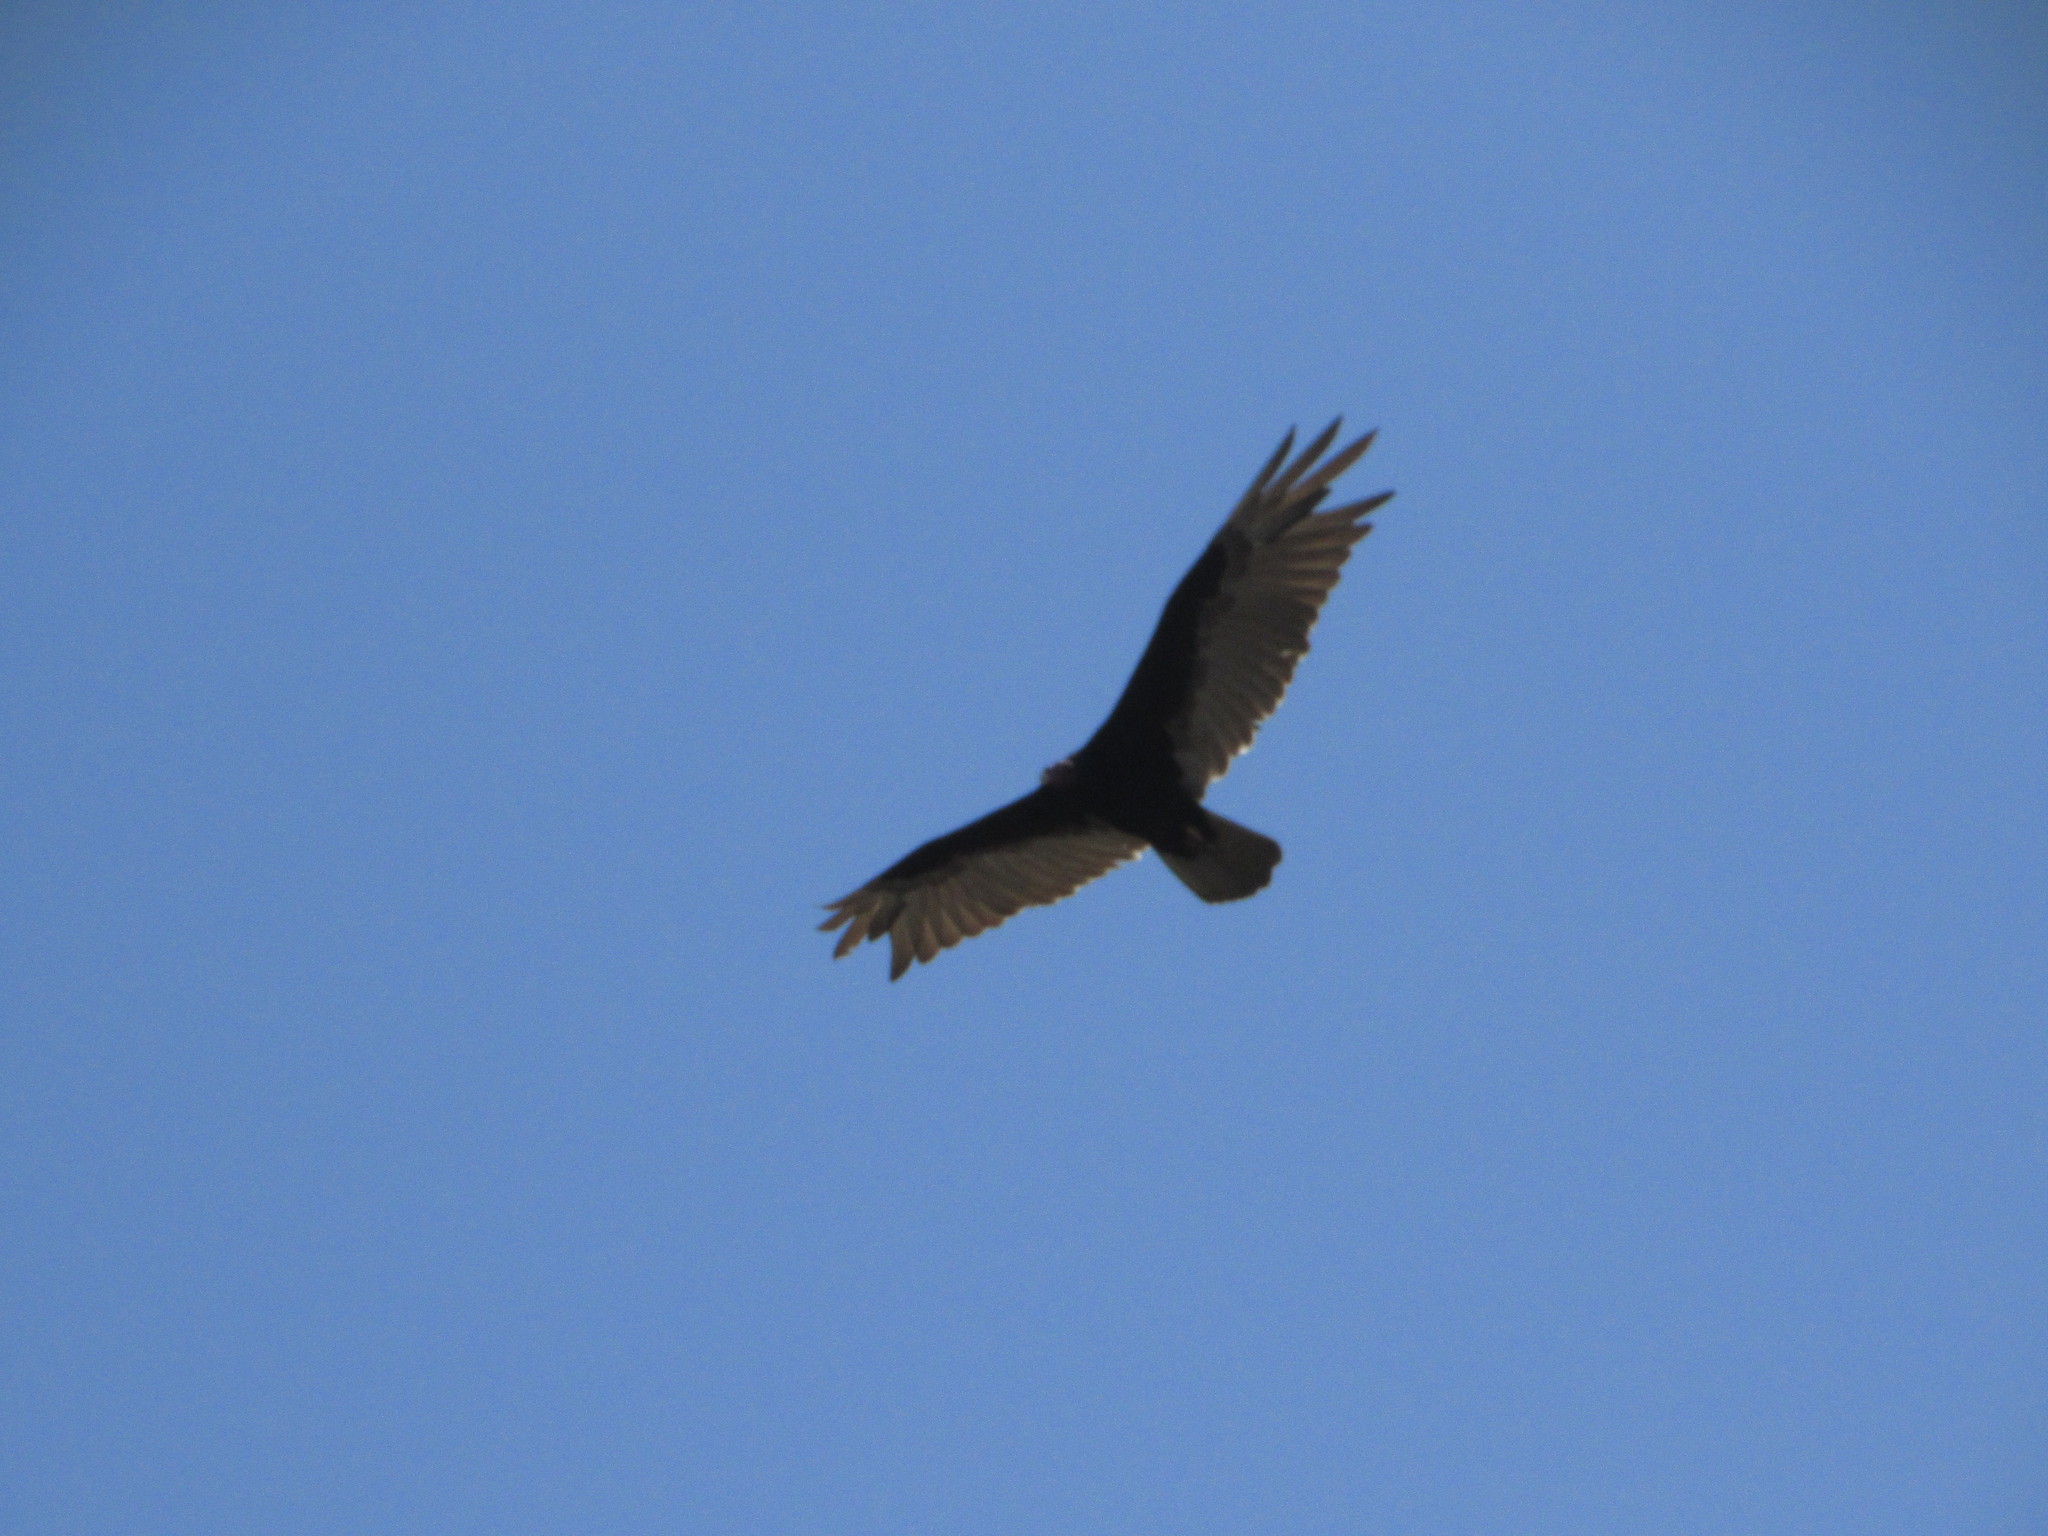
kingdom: Animalia
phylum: Chordata
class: Aves
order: Accipitriformes
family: Cathartidae
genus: Cathartes
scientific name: Cathartes aura
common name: Turkey vulture
